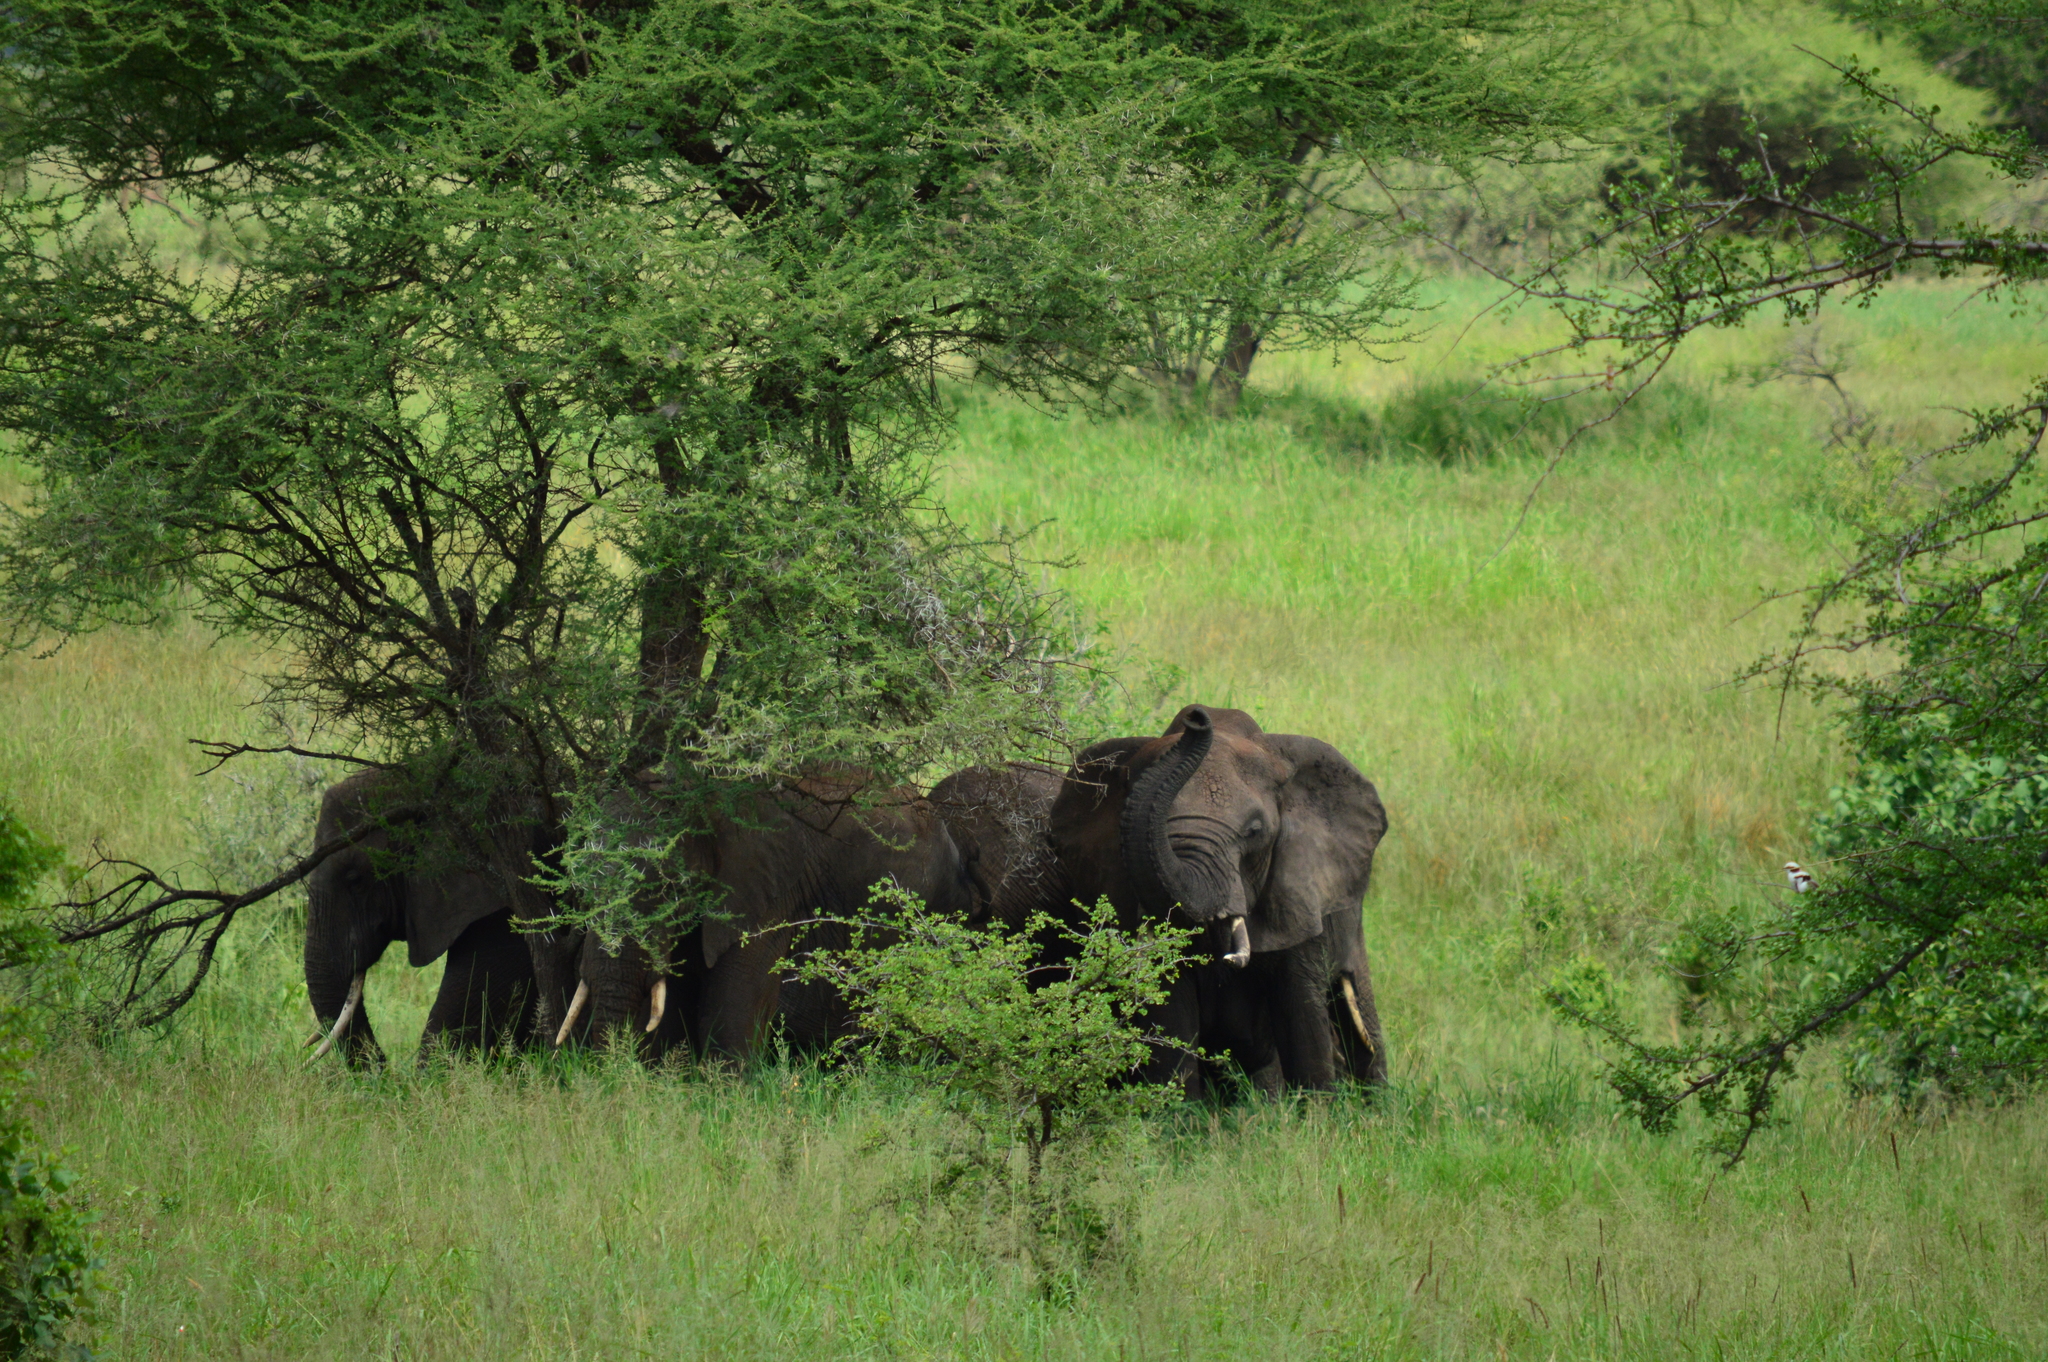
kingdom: Animalia
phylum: Chordata
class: Mammalia
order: Proboscidea
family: Elephantidae
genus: Loxodonta
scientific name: Loxodonta africana
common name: African elephant
